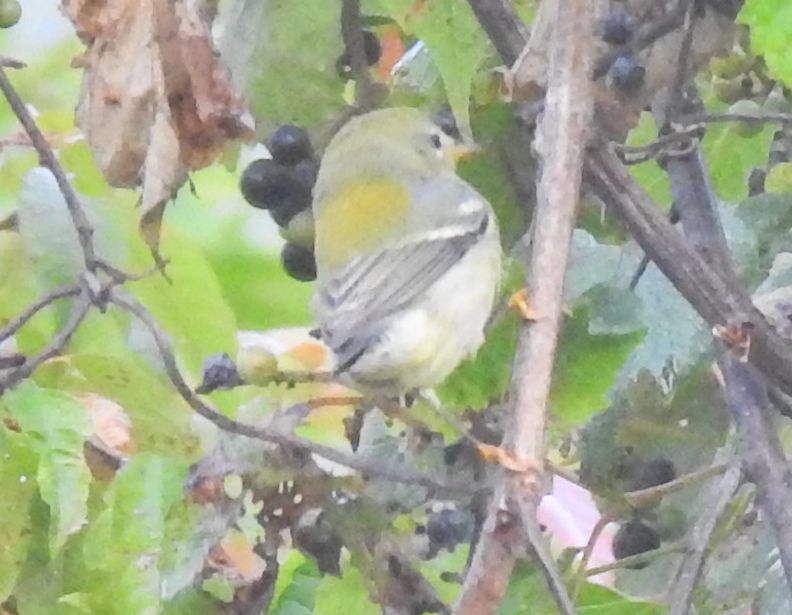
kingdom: Animalia
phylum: Chordata
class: Aves
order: Passeriformes
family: Parulidae
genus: Setophaga
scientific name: Setophaga americana
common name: Northern parula
